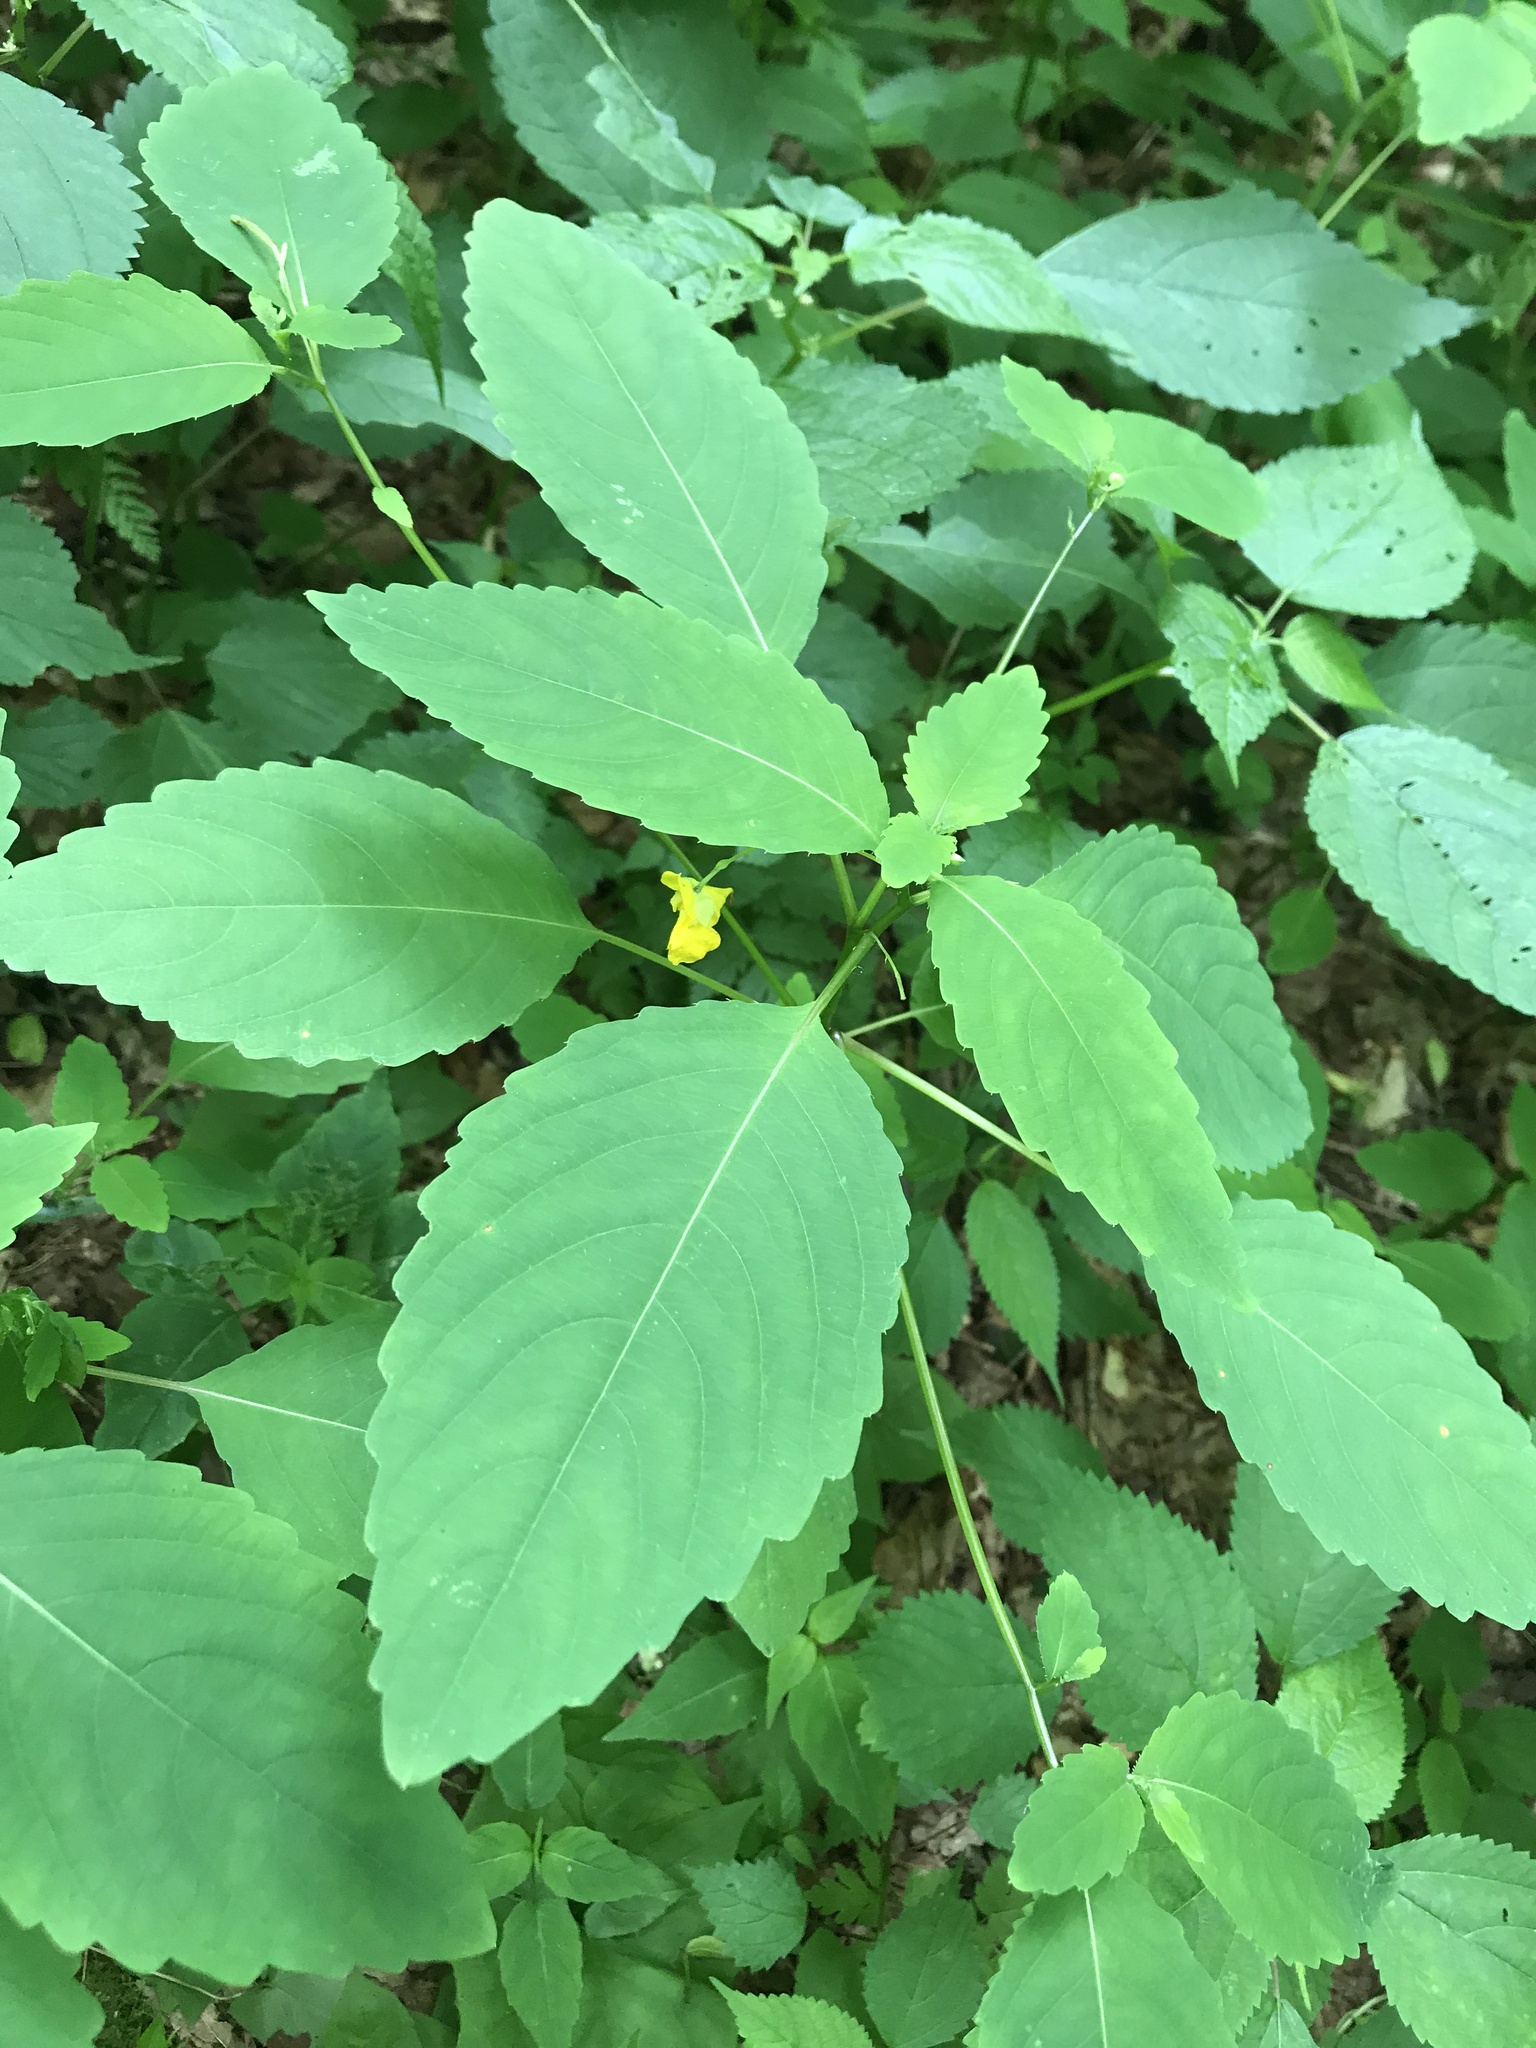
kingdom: Plantae
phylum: Tracheophyta
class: Magnoliopsida
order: Ericales
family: Balsaminaceae
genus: Impatiens
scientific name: Impatiens pallida
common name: Pale snapweed
